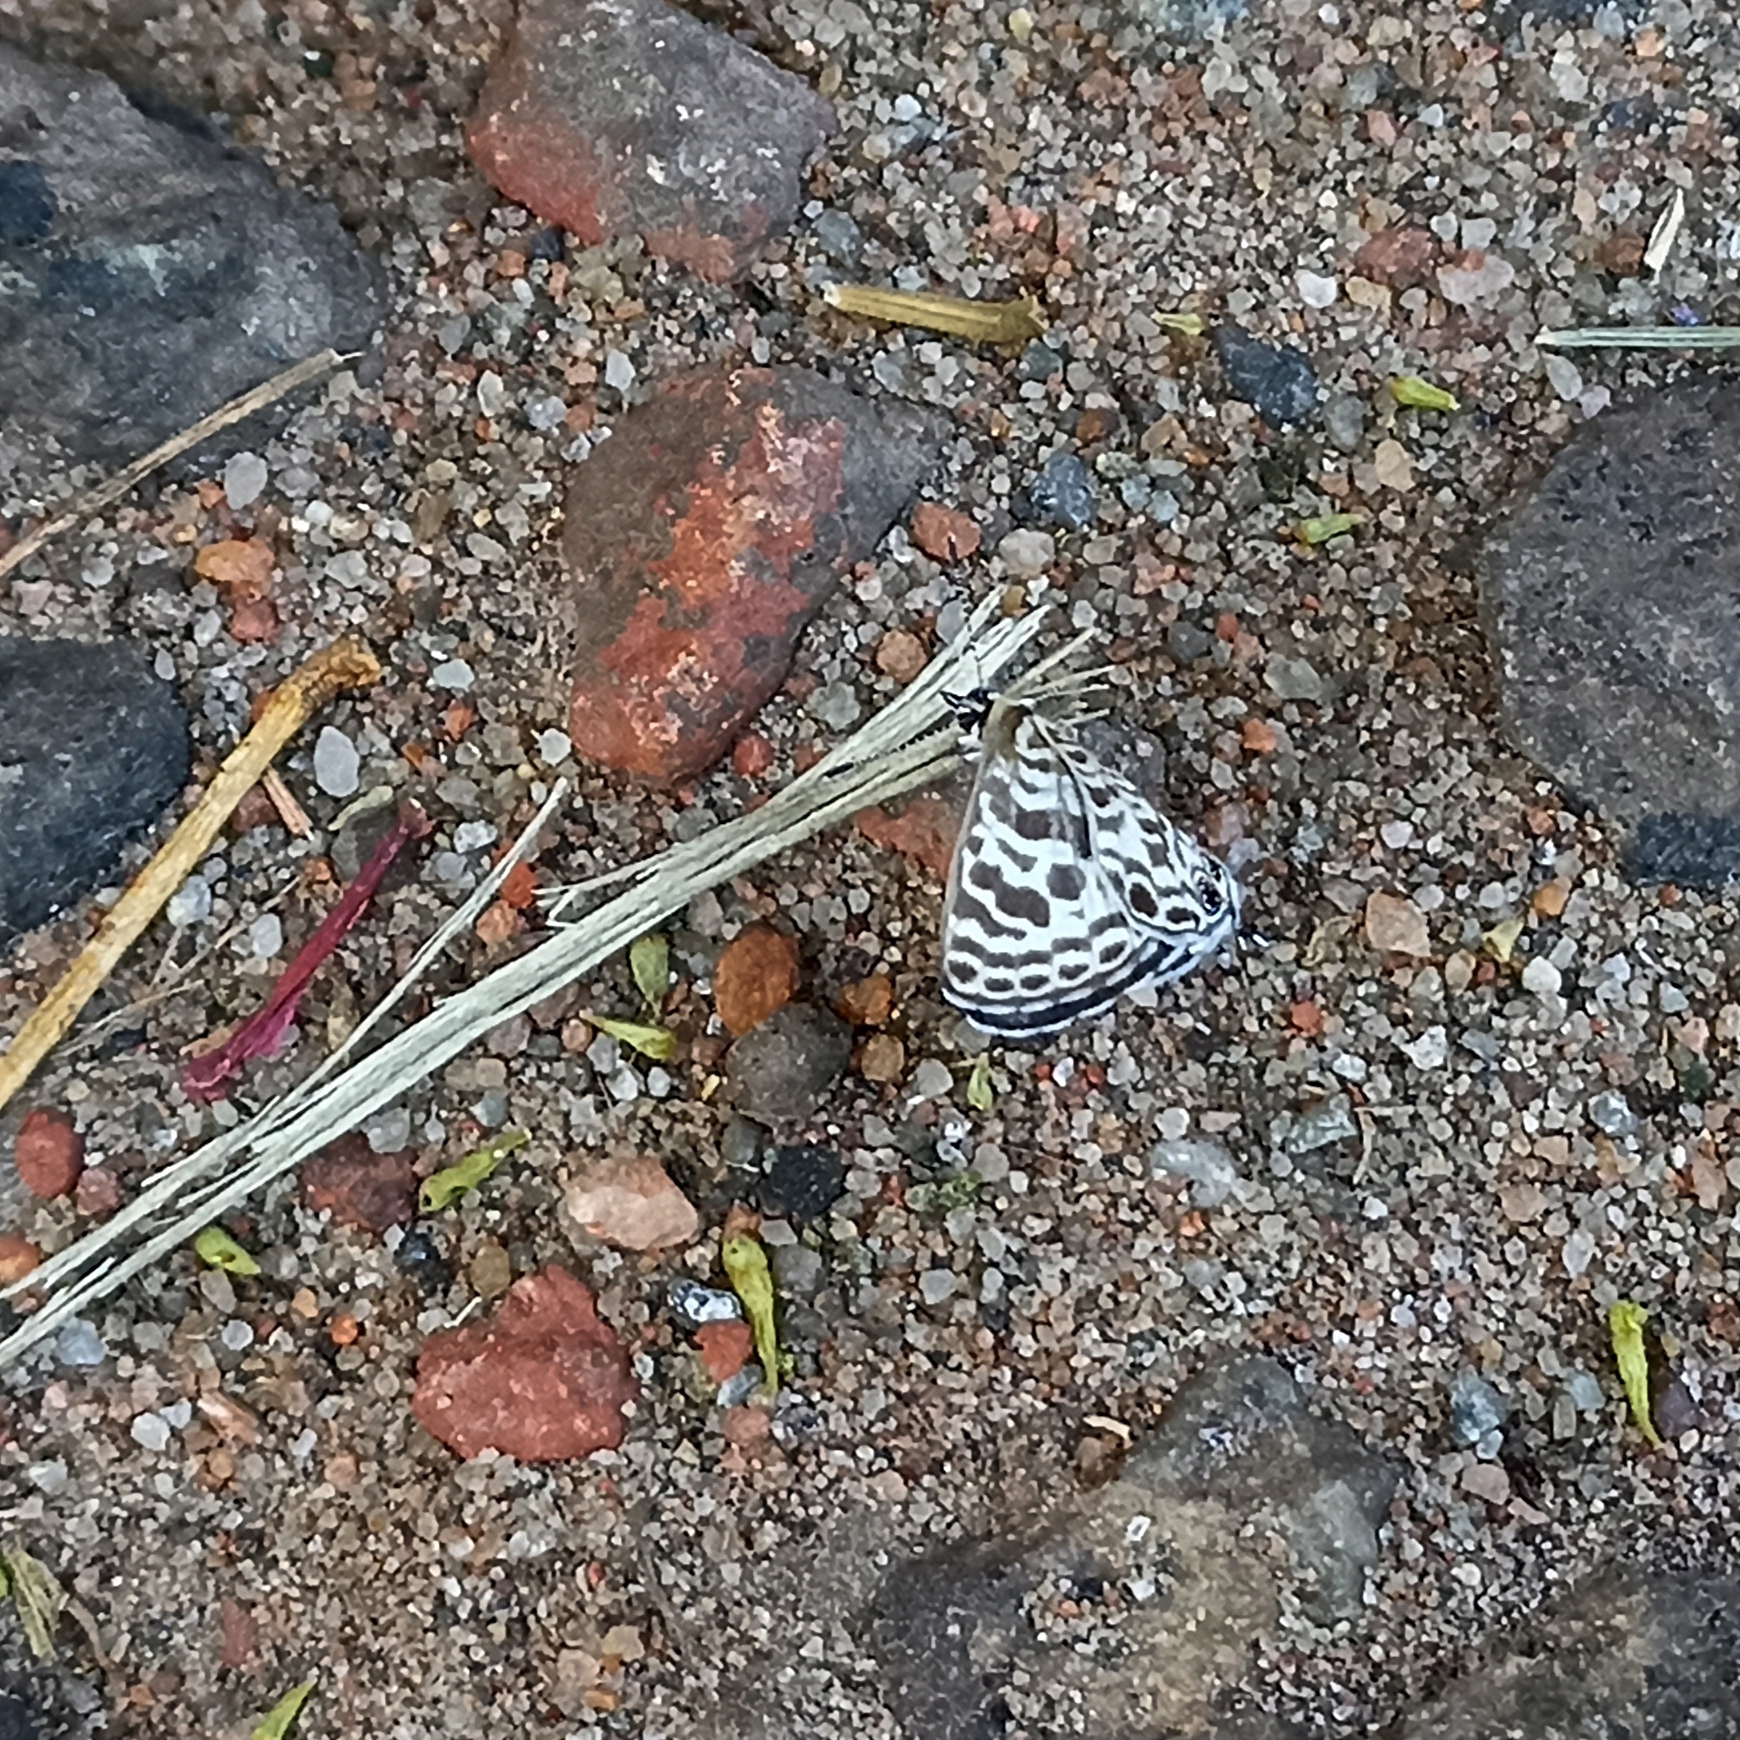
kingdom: Animalia
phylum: Arthropoda
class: Insecta
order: Lepidoptera
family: Lycaenidae
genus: Leptotes
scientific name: Leptotes plinius
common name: Zebra blue
